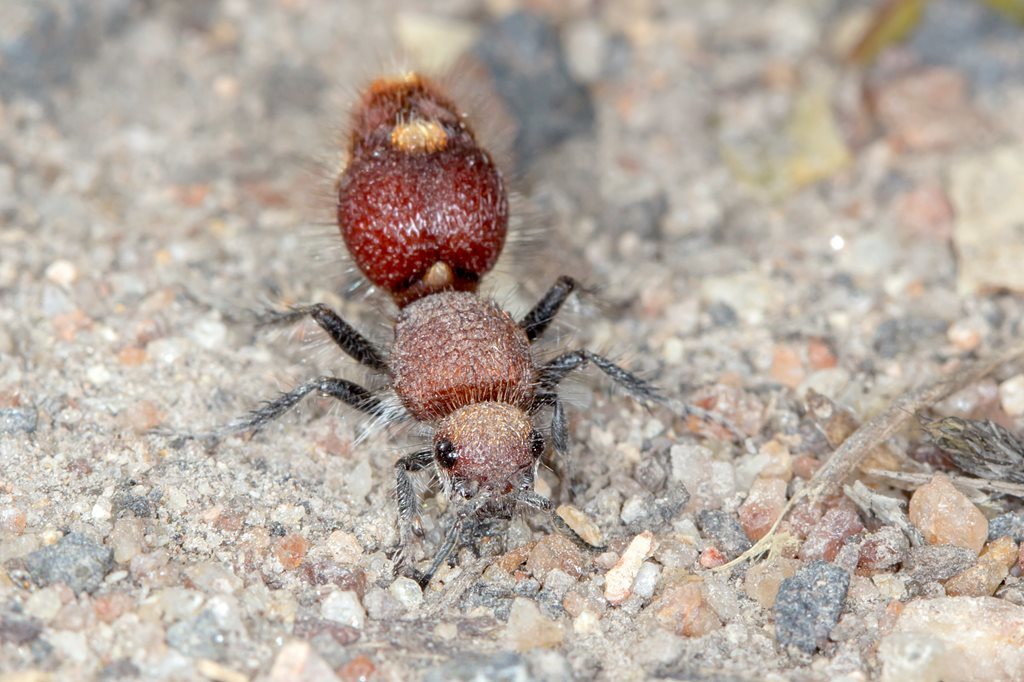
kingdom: Animalia
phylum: Arthropoda
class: Insecta
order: Hymenoptera
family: Mutillidae
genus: Ephutomorpha
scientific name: Ephutomorpha
